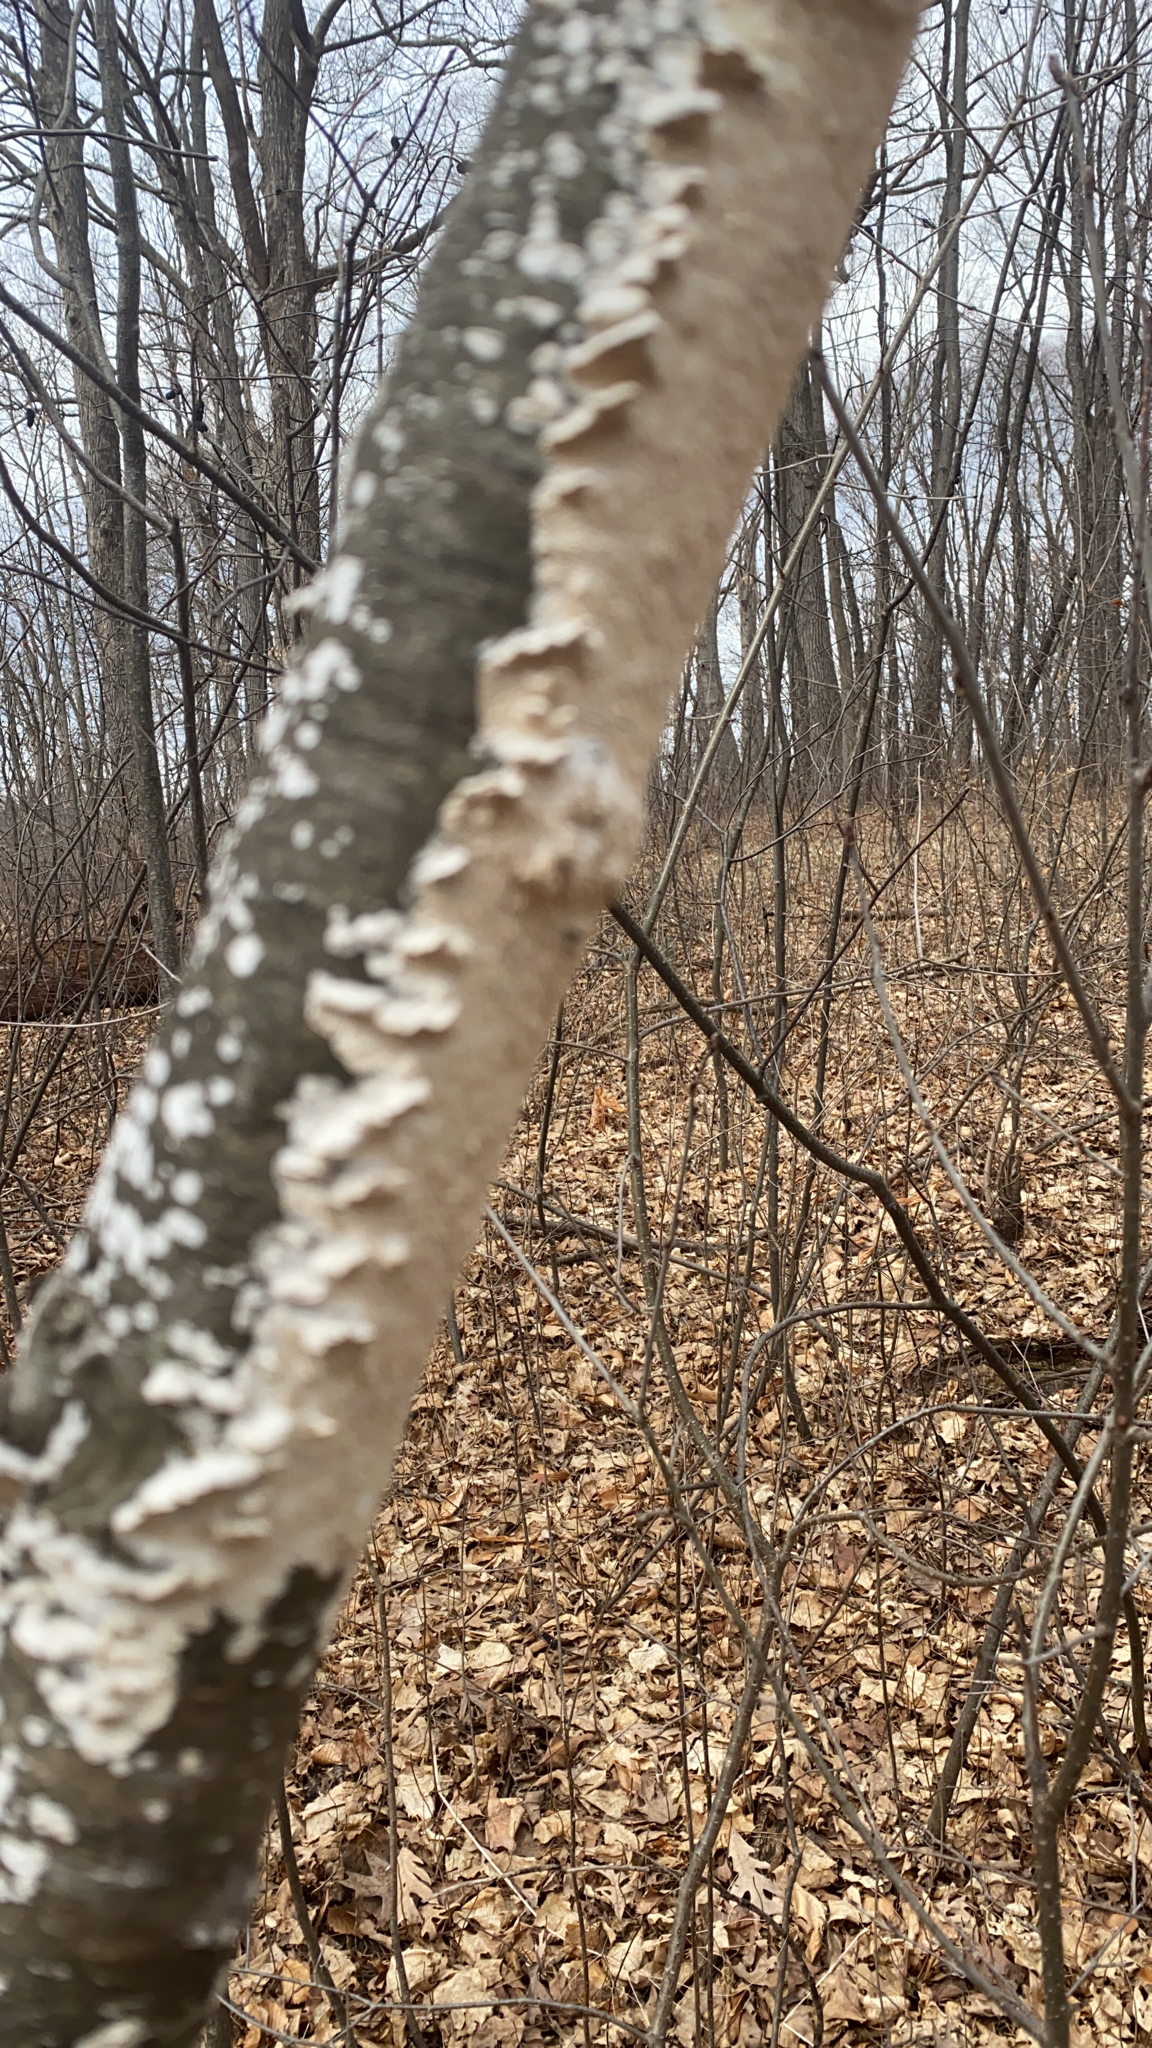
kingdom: Fungi
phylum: Basidiomycota
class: Agaricomycetes
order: Polyporales
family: Irpicaceae
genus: Irpex
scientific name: Irpex lacteus
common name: Milk-white toothed polypore
